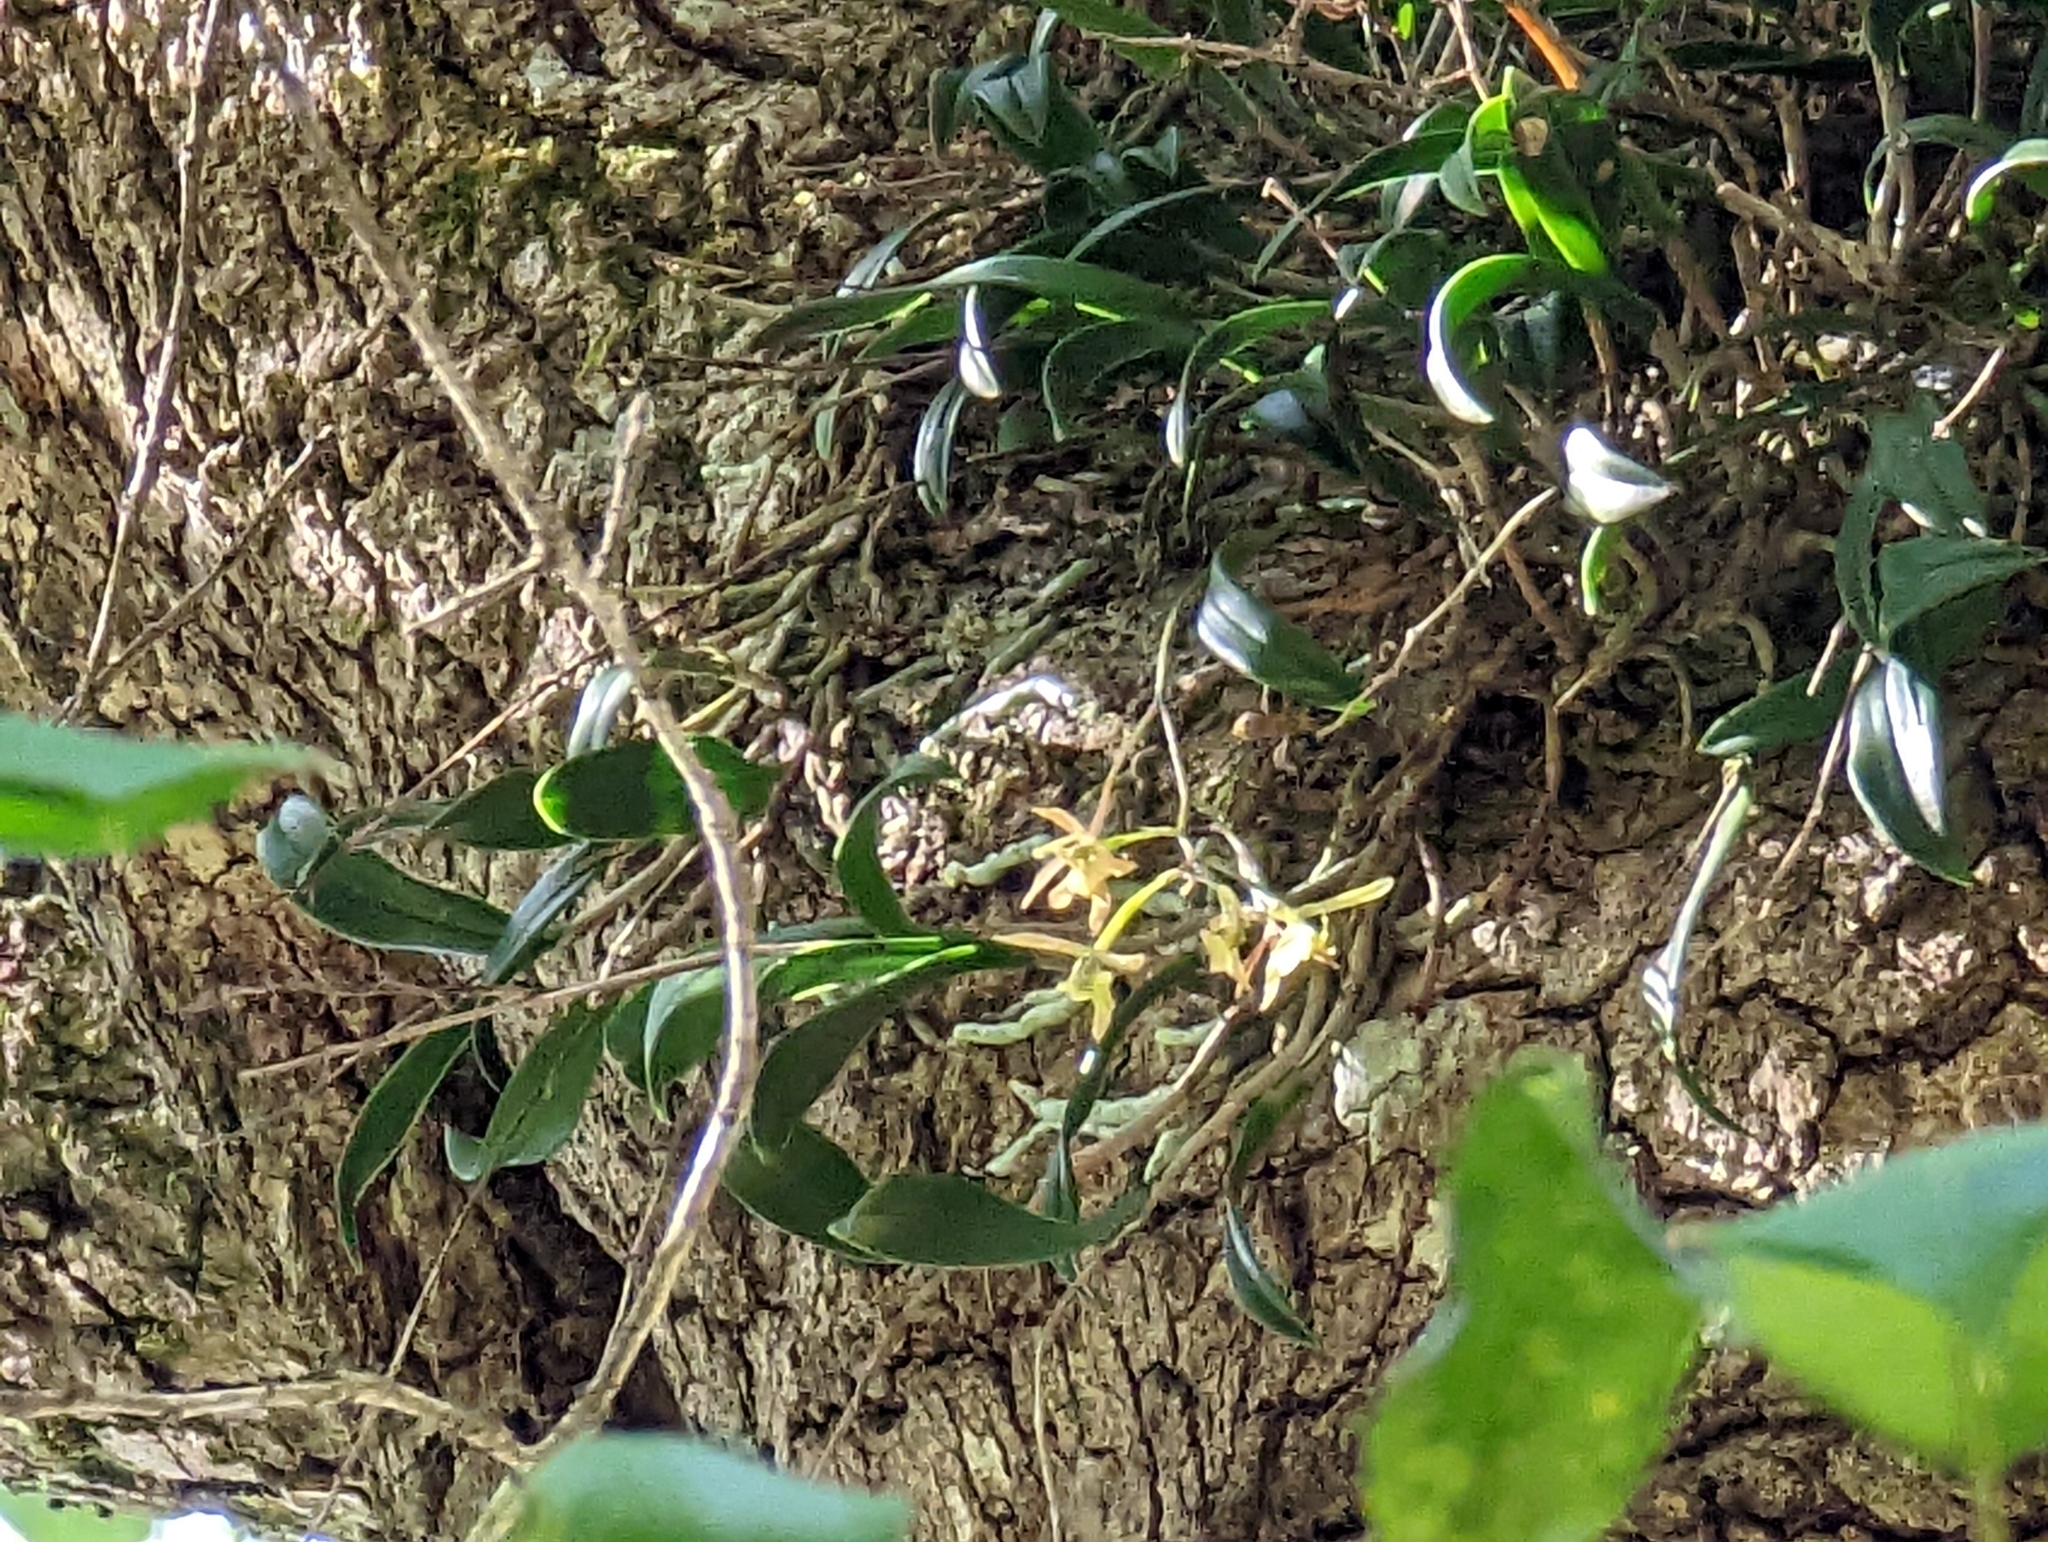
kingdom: Plantae
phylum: Tracheophyta
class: Liliopsida
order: Asparagales
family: Orchidaceae
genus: Epidendrum
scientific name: Epidendrum conopseum
